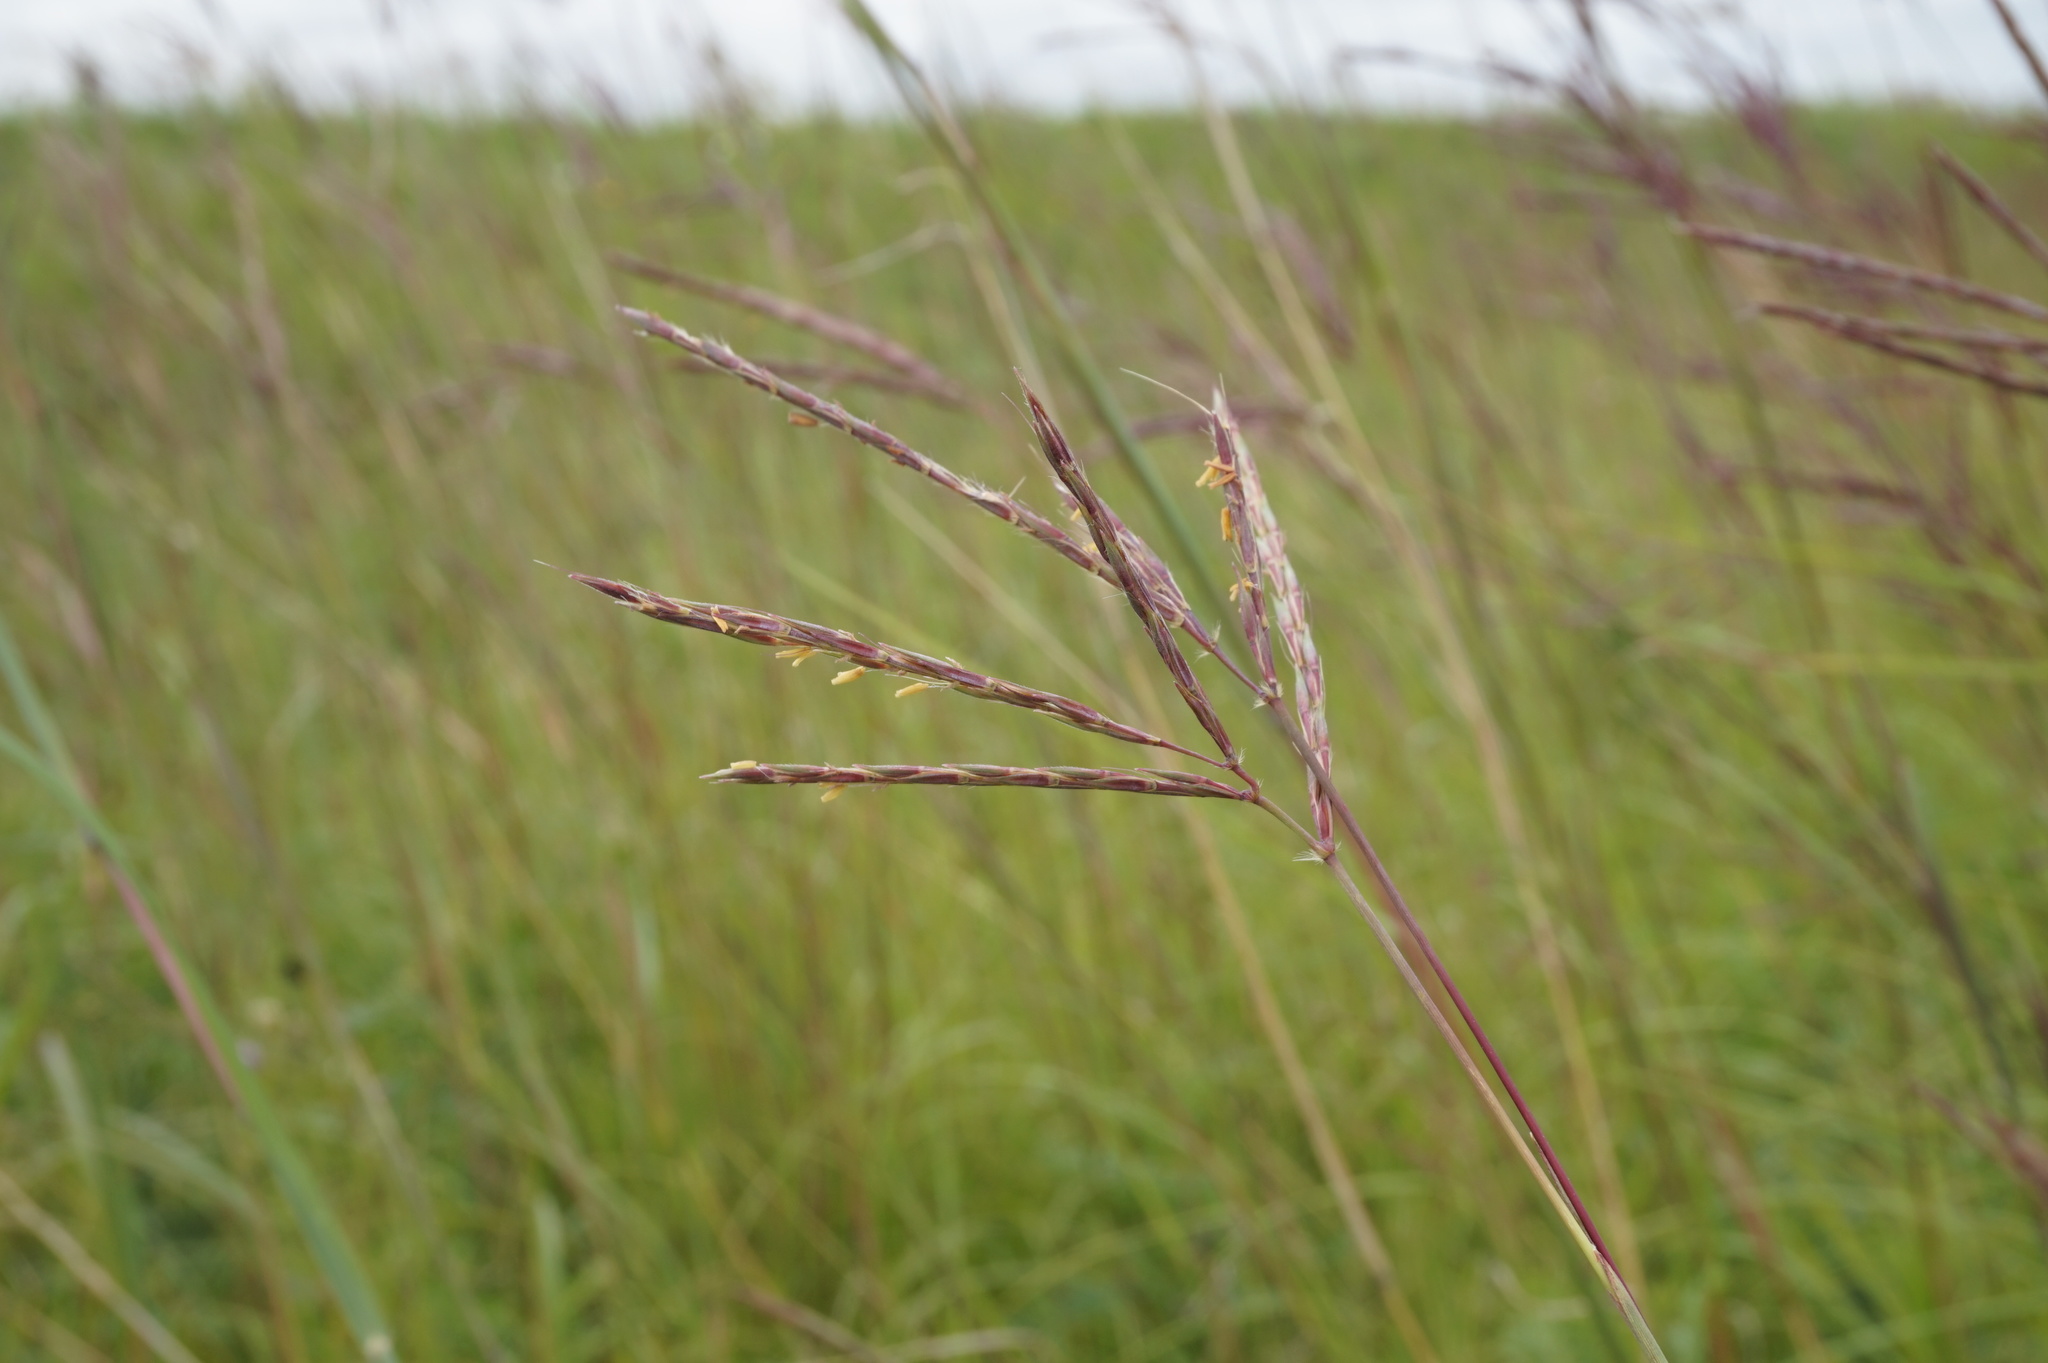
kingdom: Plantae
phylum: Tracheophyta
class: Liliopsida
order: Poales
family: Poaceae
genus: Andropogon
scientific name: Andropogon gerardi
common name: Big bluestem
